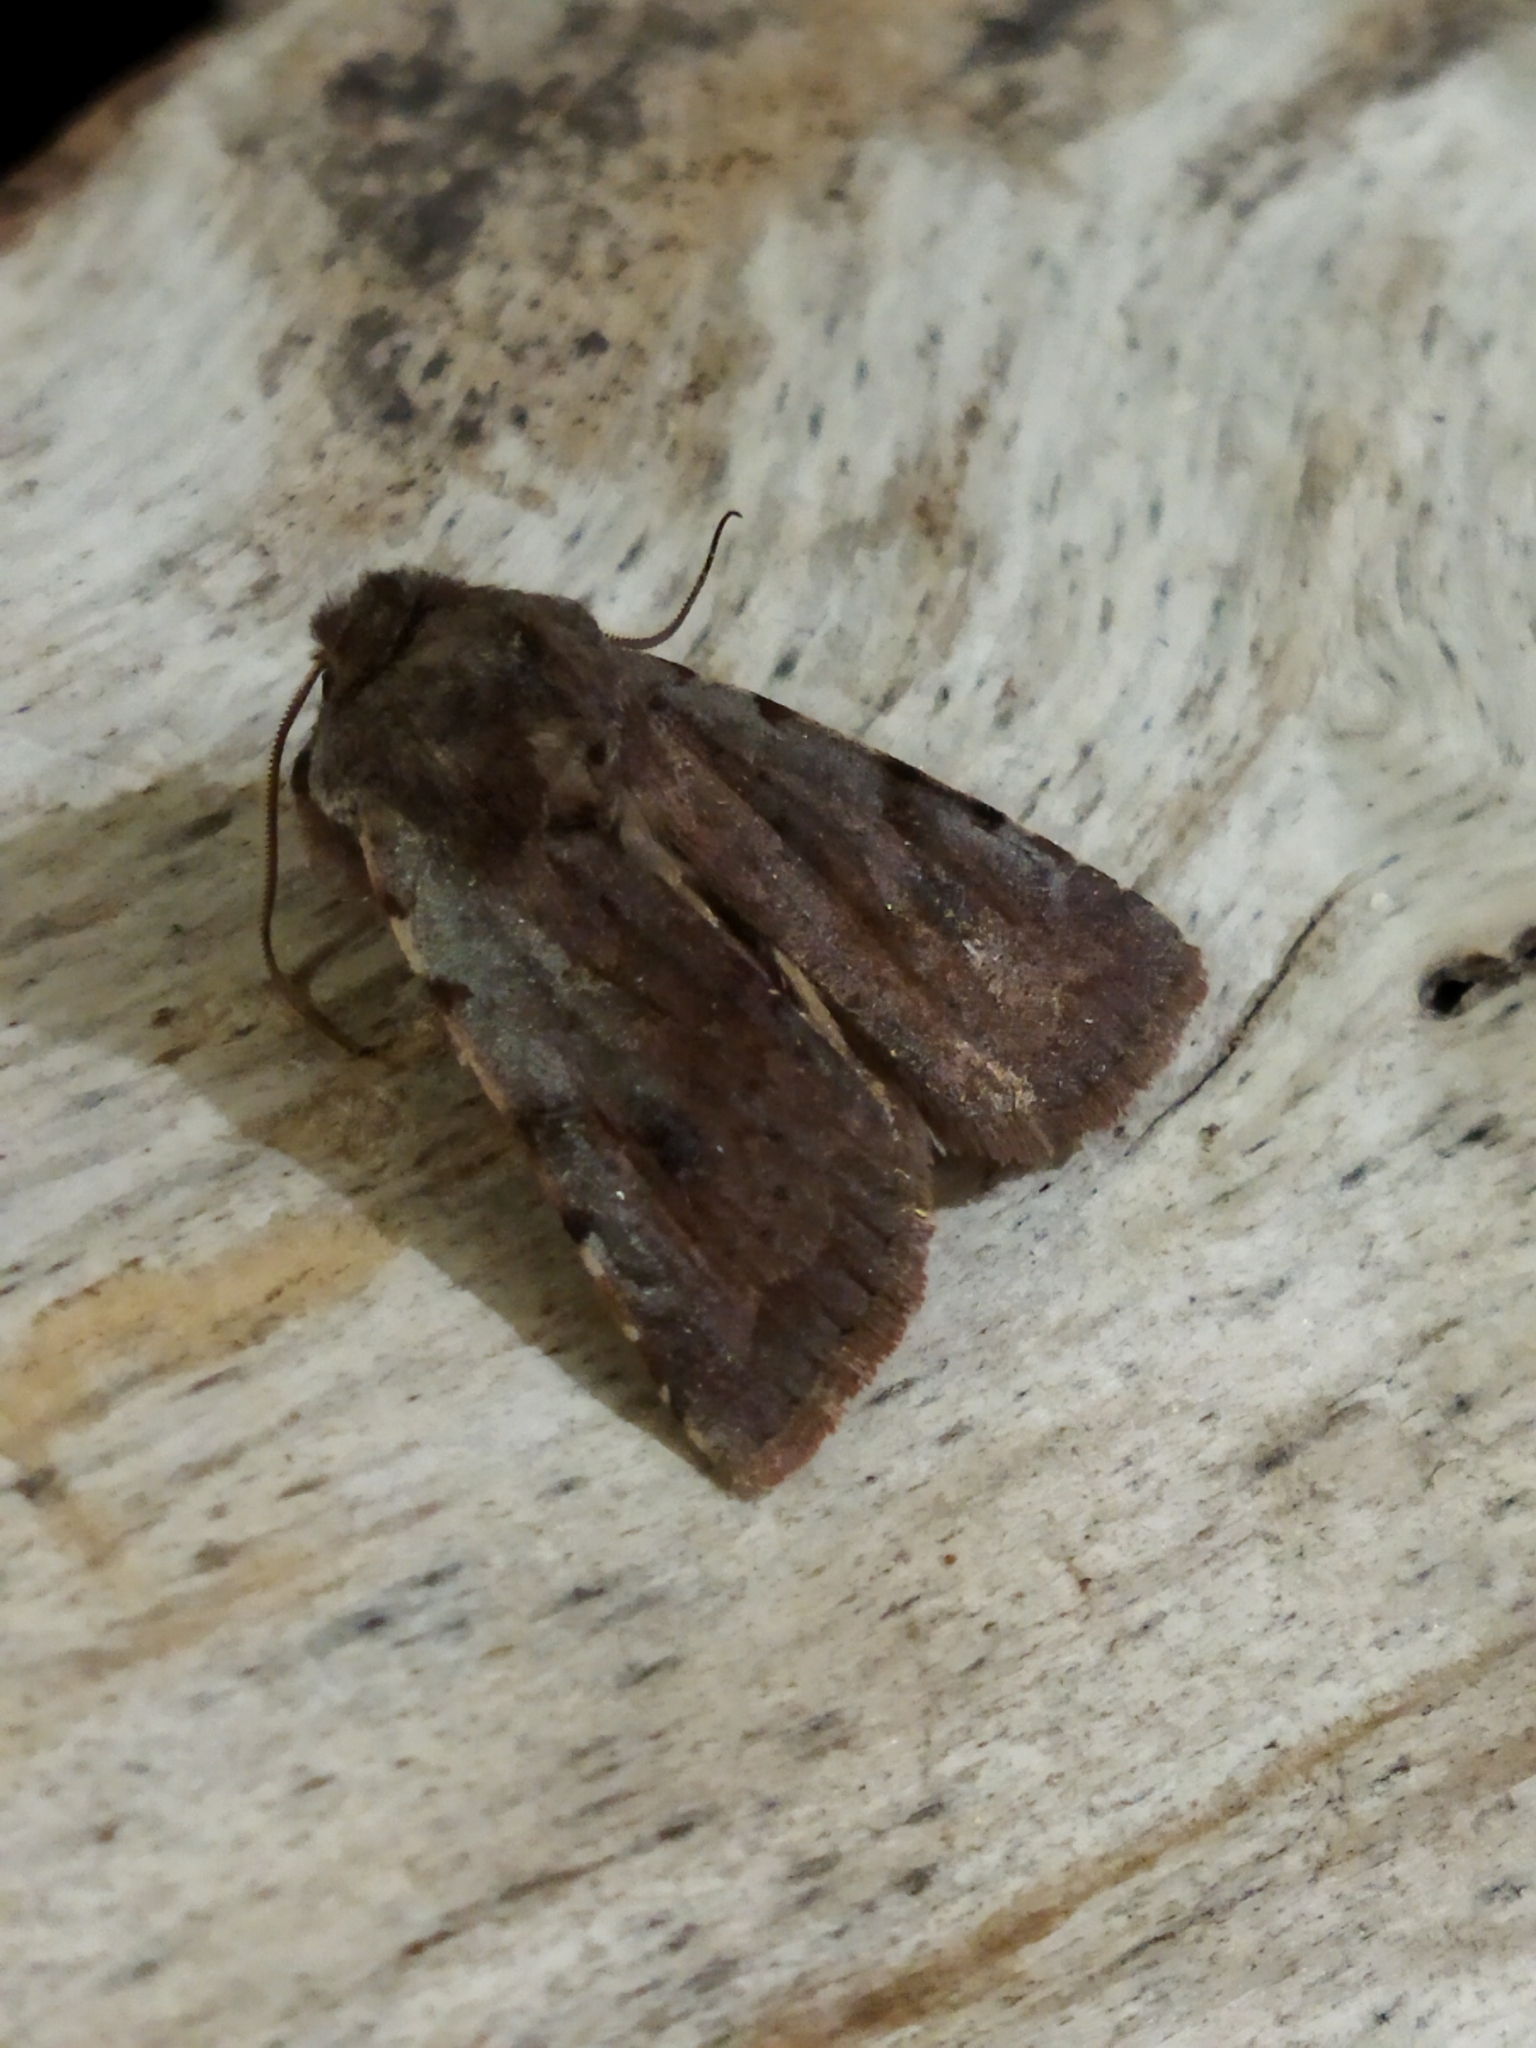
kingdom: Animalia
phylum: Arthropoda
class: Insecta
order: Lepidoptera
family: Noctuidae
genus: Cerastis
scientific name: Cerastis rubricosa
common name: Red chestnut
